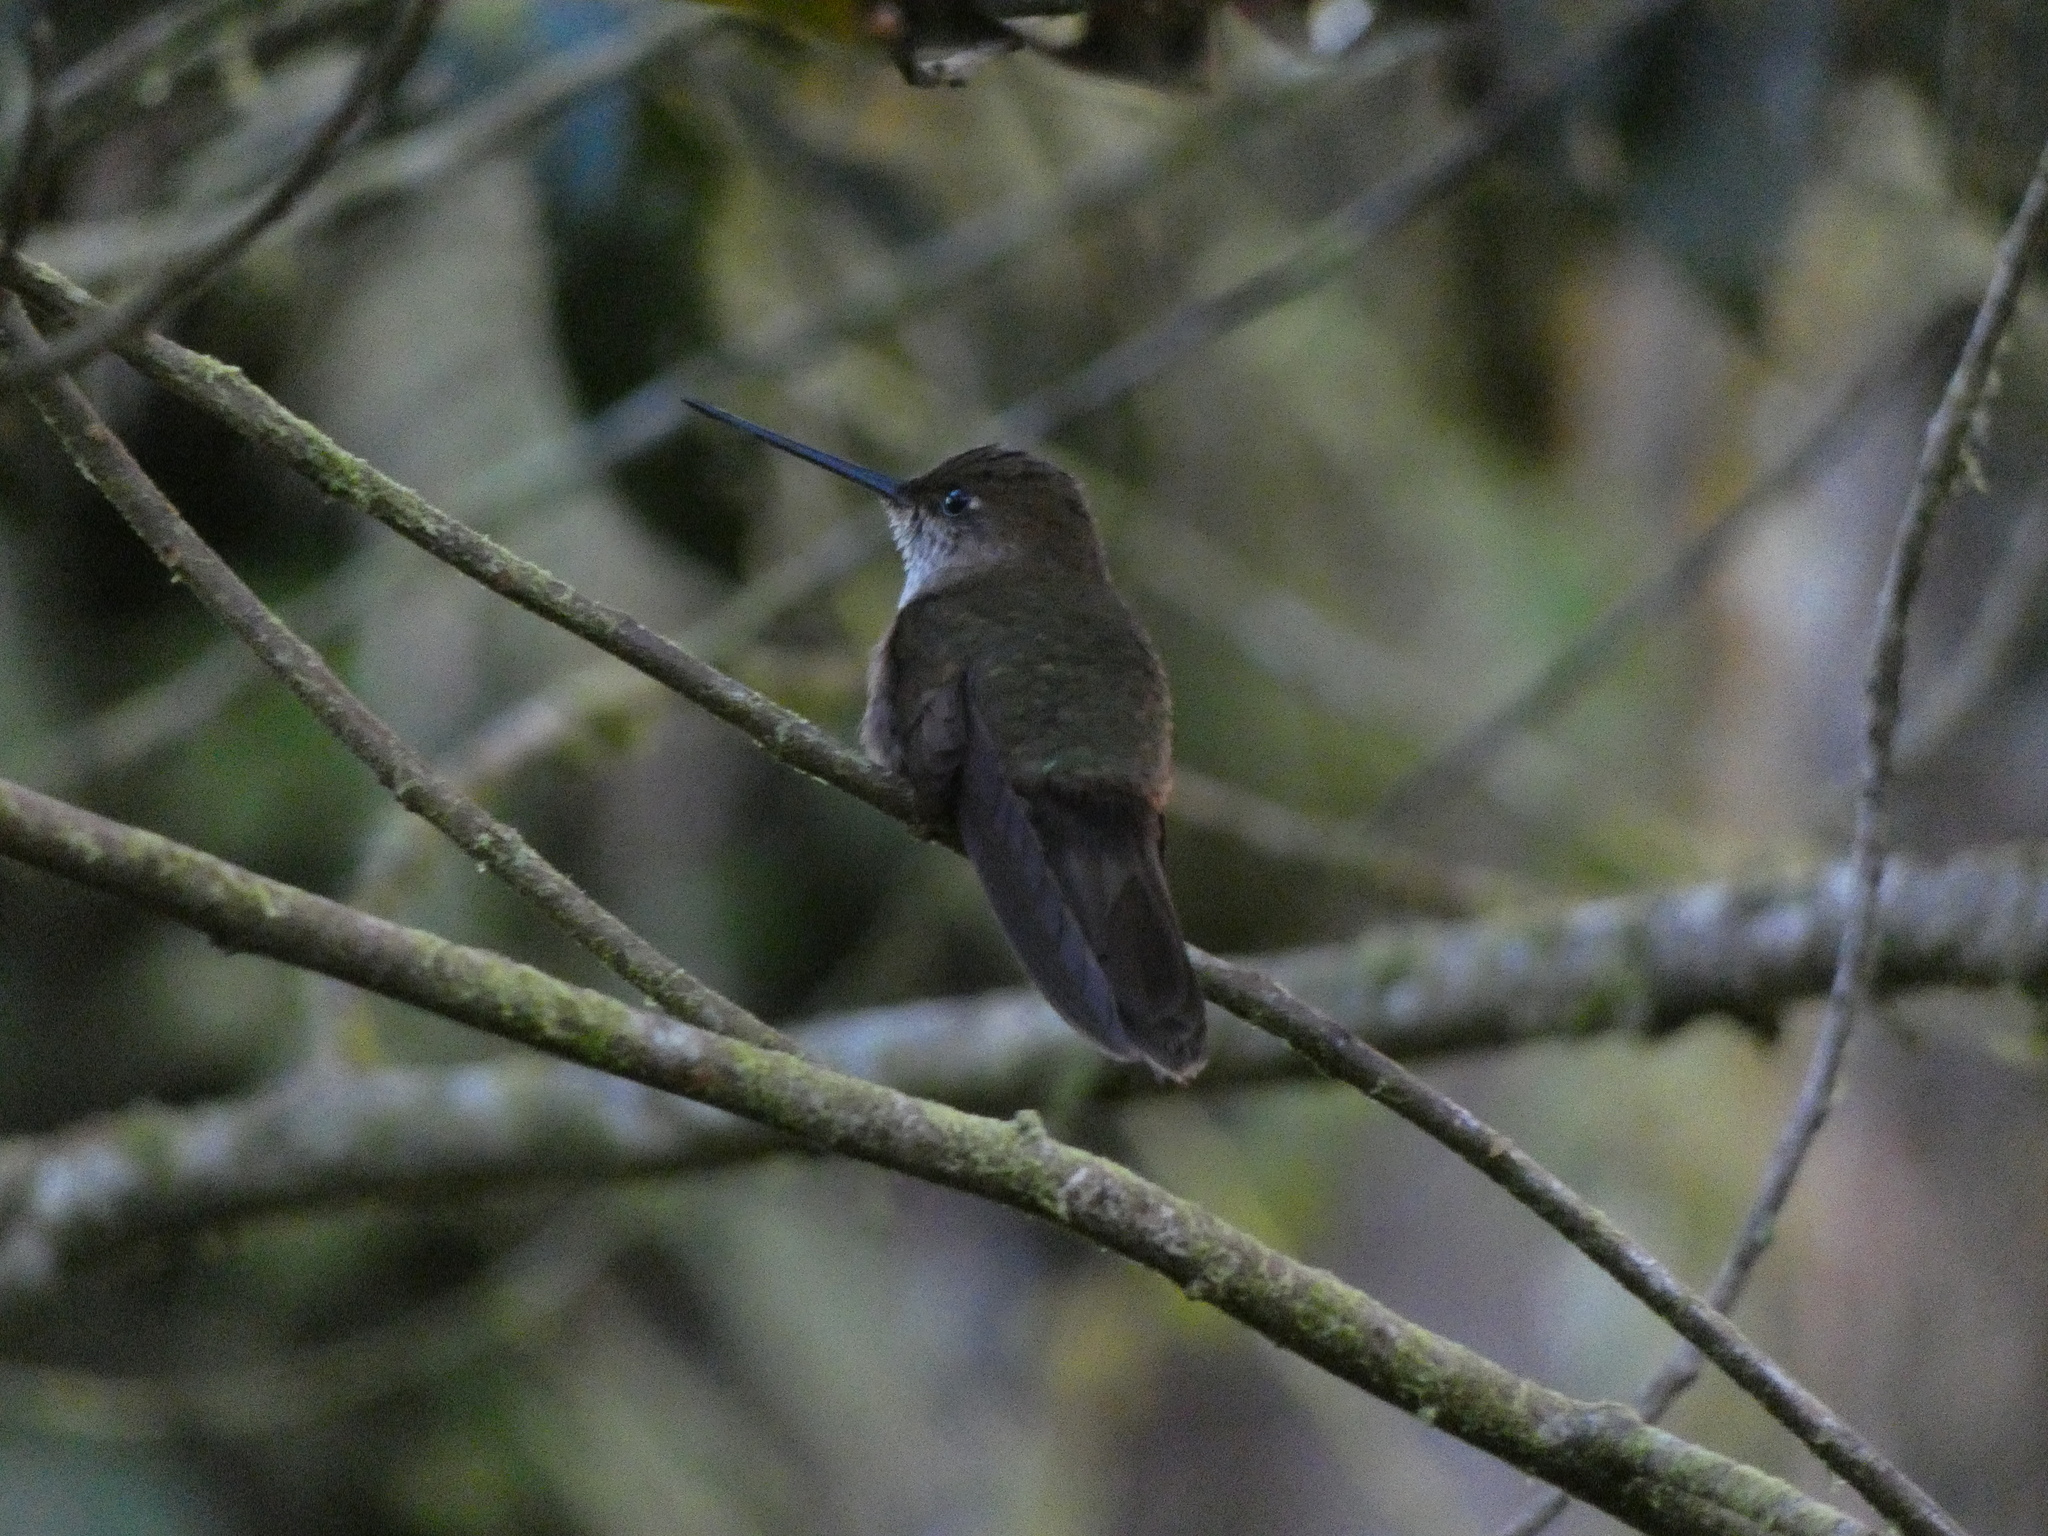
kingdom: Animalia
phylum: Chordata
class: Aves
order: Apodiformes
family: Trochilidae
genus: Coeligena
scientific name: Coeligena coeligena
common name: Bronzy inca
